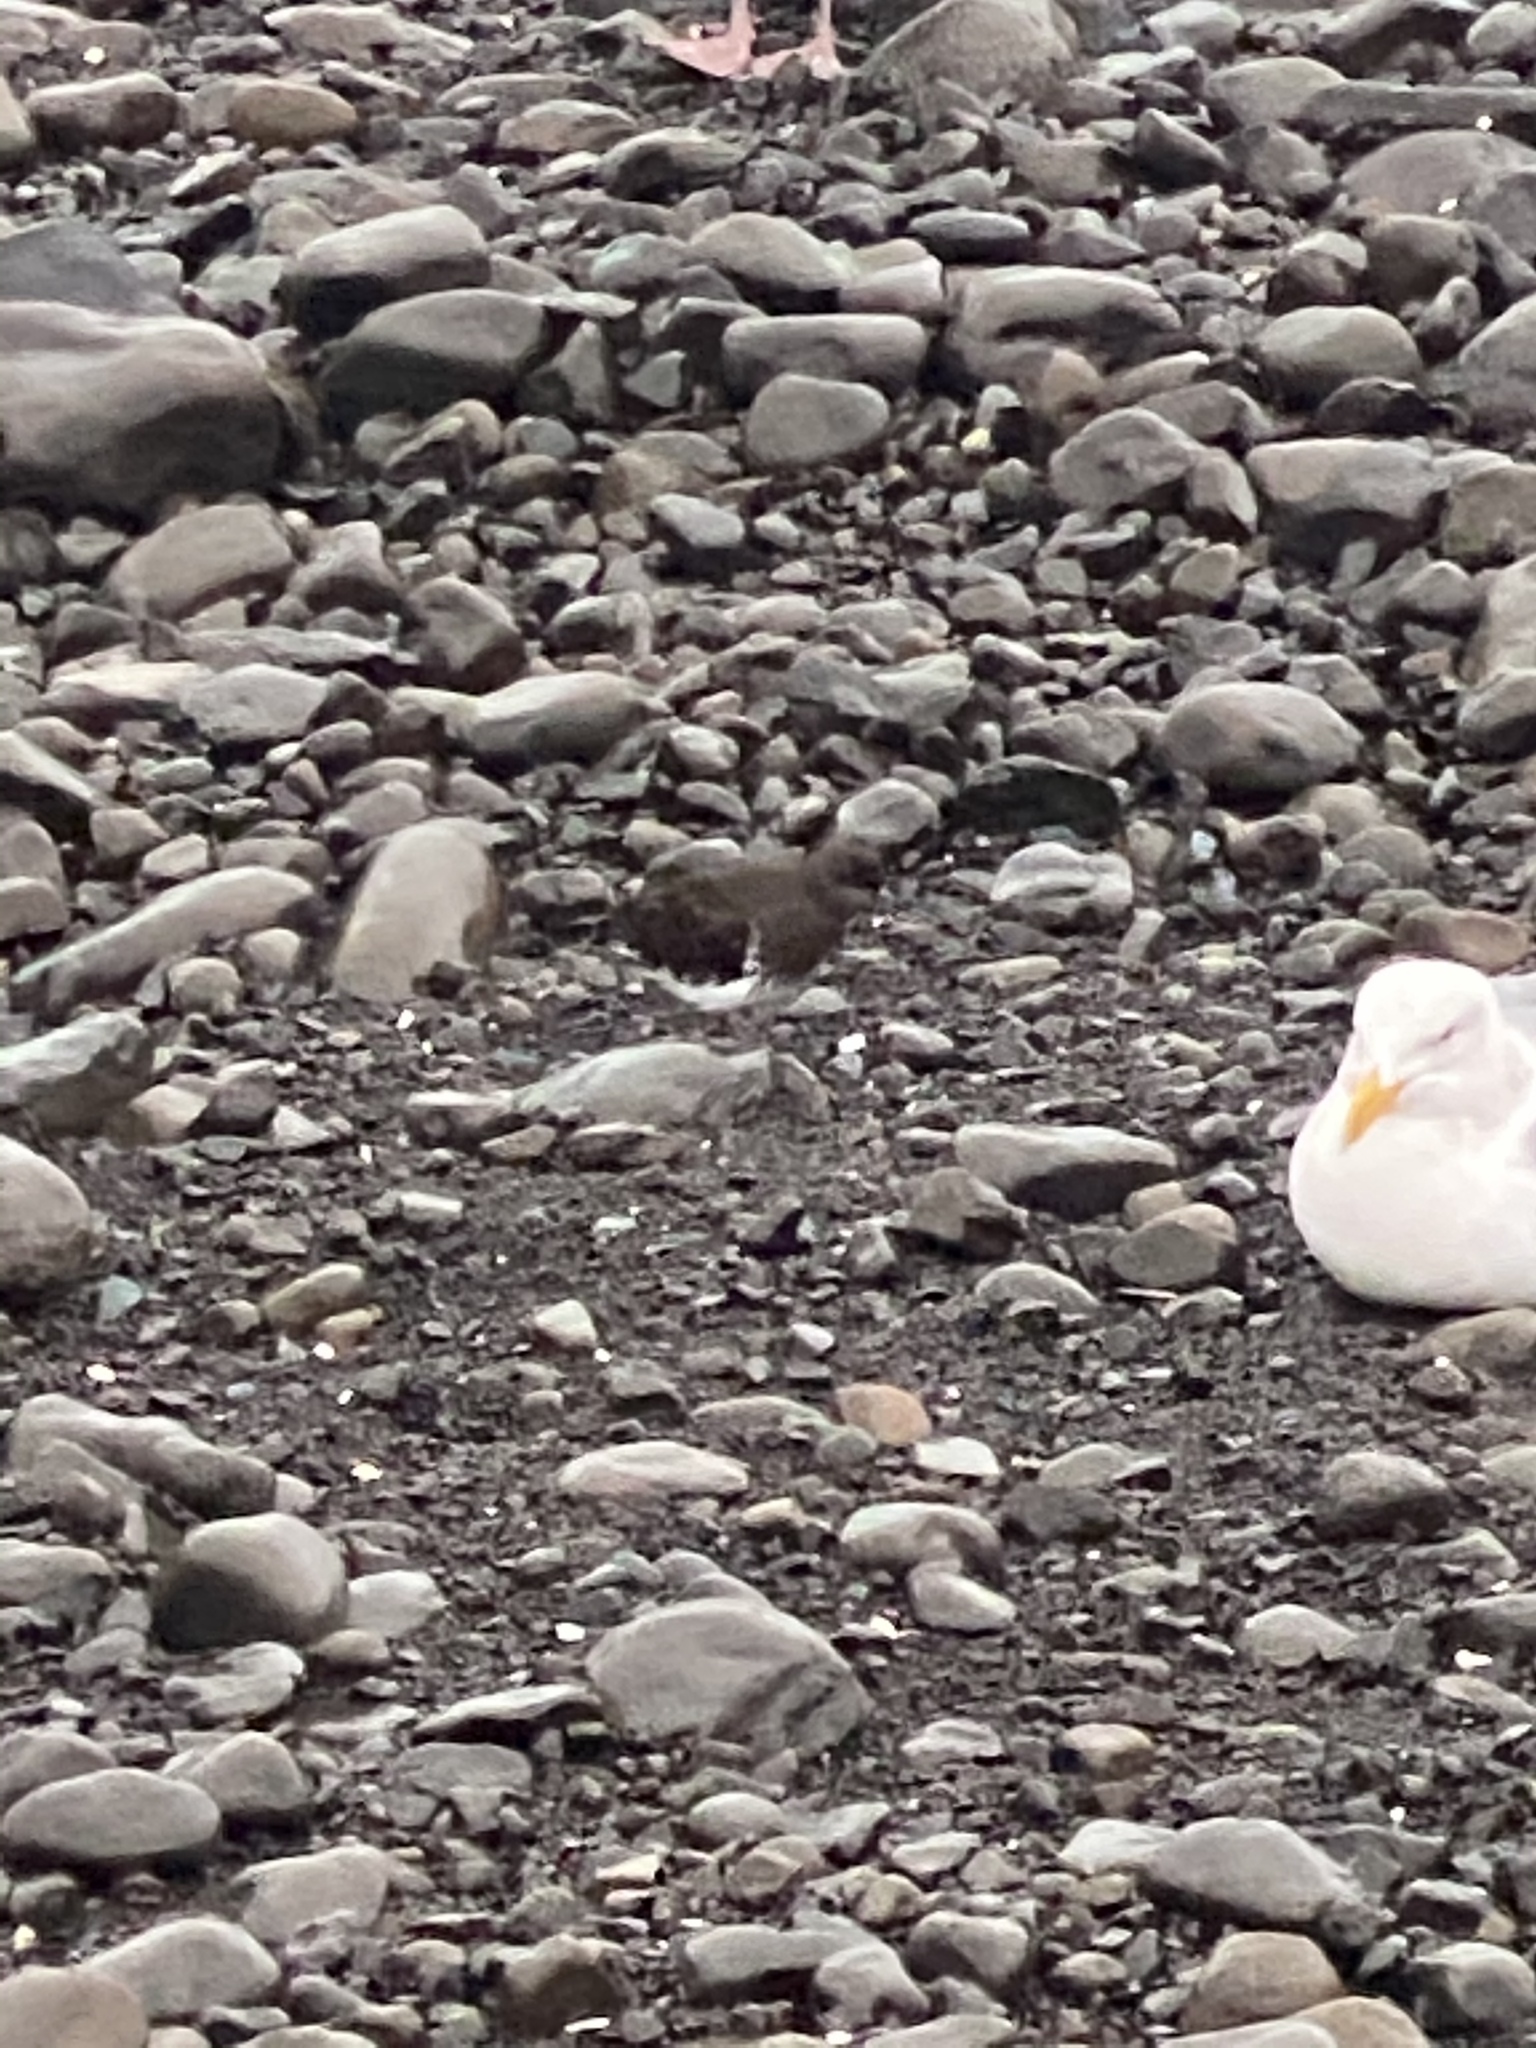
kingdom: Animalia
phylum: Chordata
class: Aves
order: Charadriiformes
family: Scolopacidae
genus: Arenaria
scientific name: Arenaria melanocephala
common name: Black turnstone
